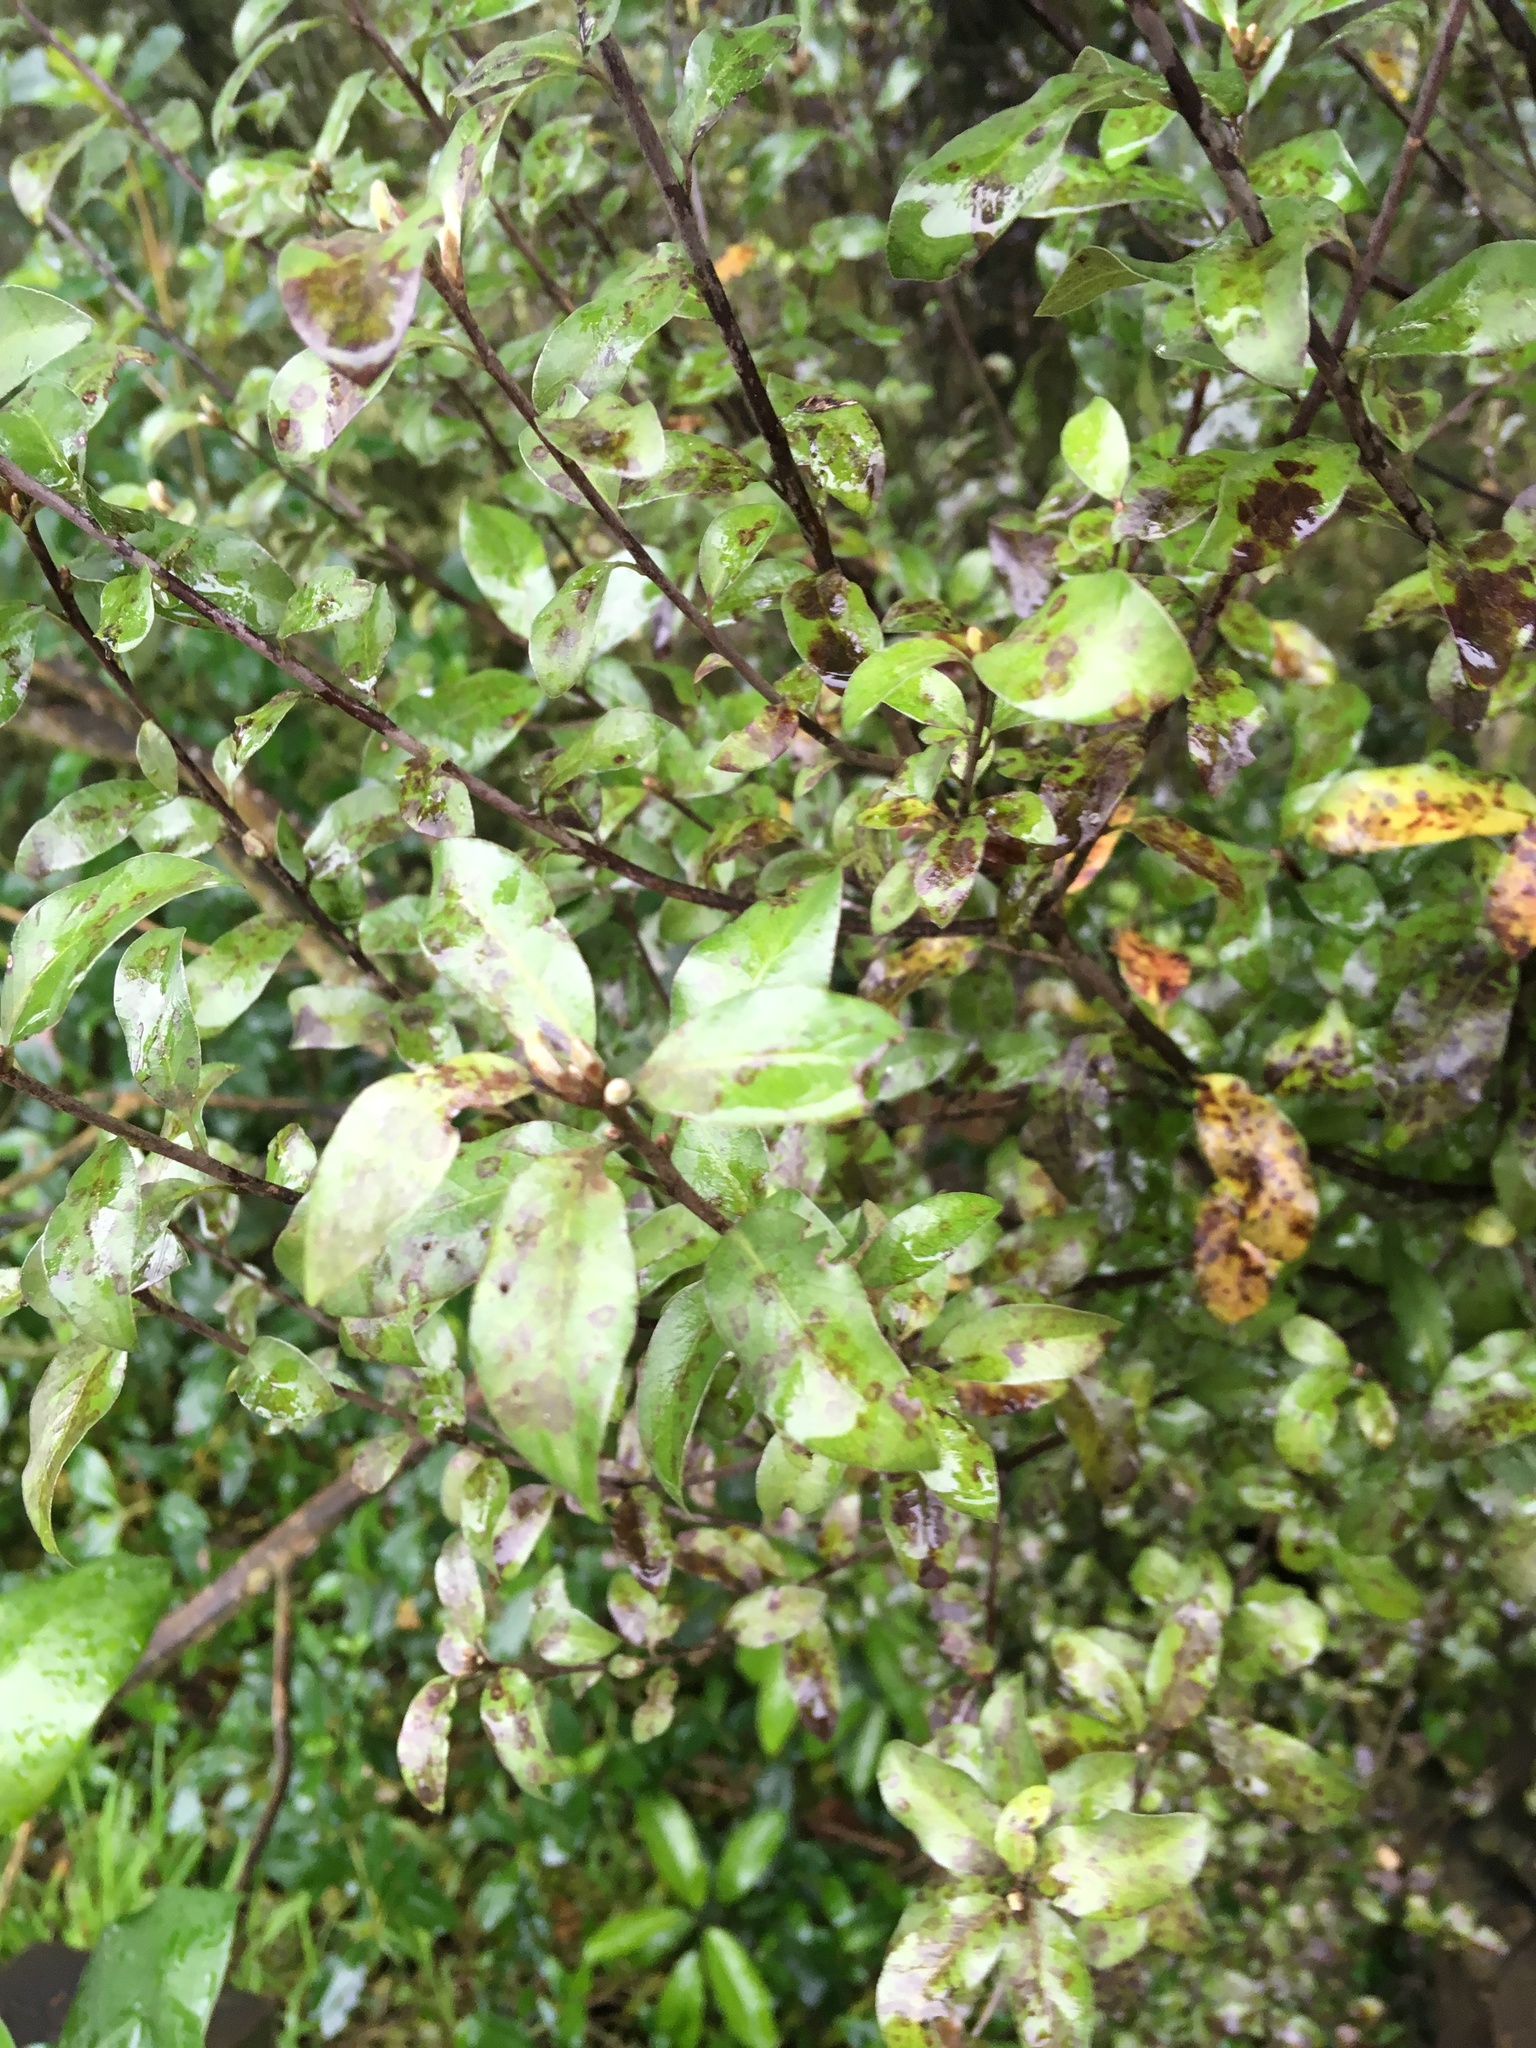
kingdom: Plantae
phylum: Tracheophyta
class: Magnoliopsida
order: Apiales
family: Pittosporaceae
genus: Pittosporum
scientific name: Pittosporum tenuifolium
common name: Kohuhu
